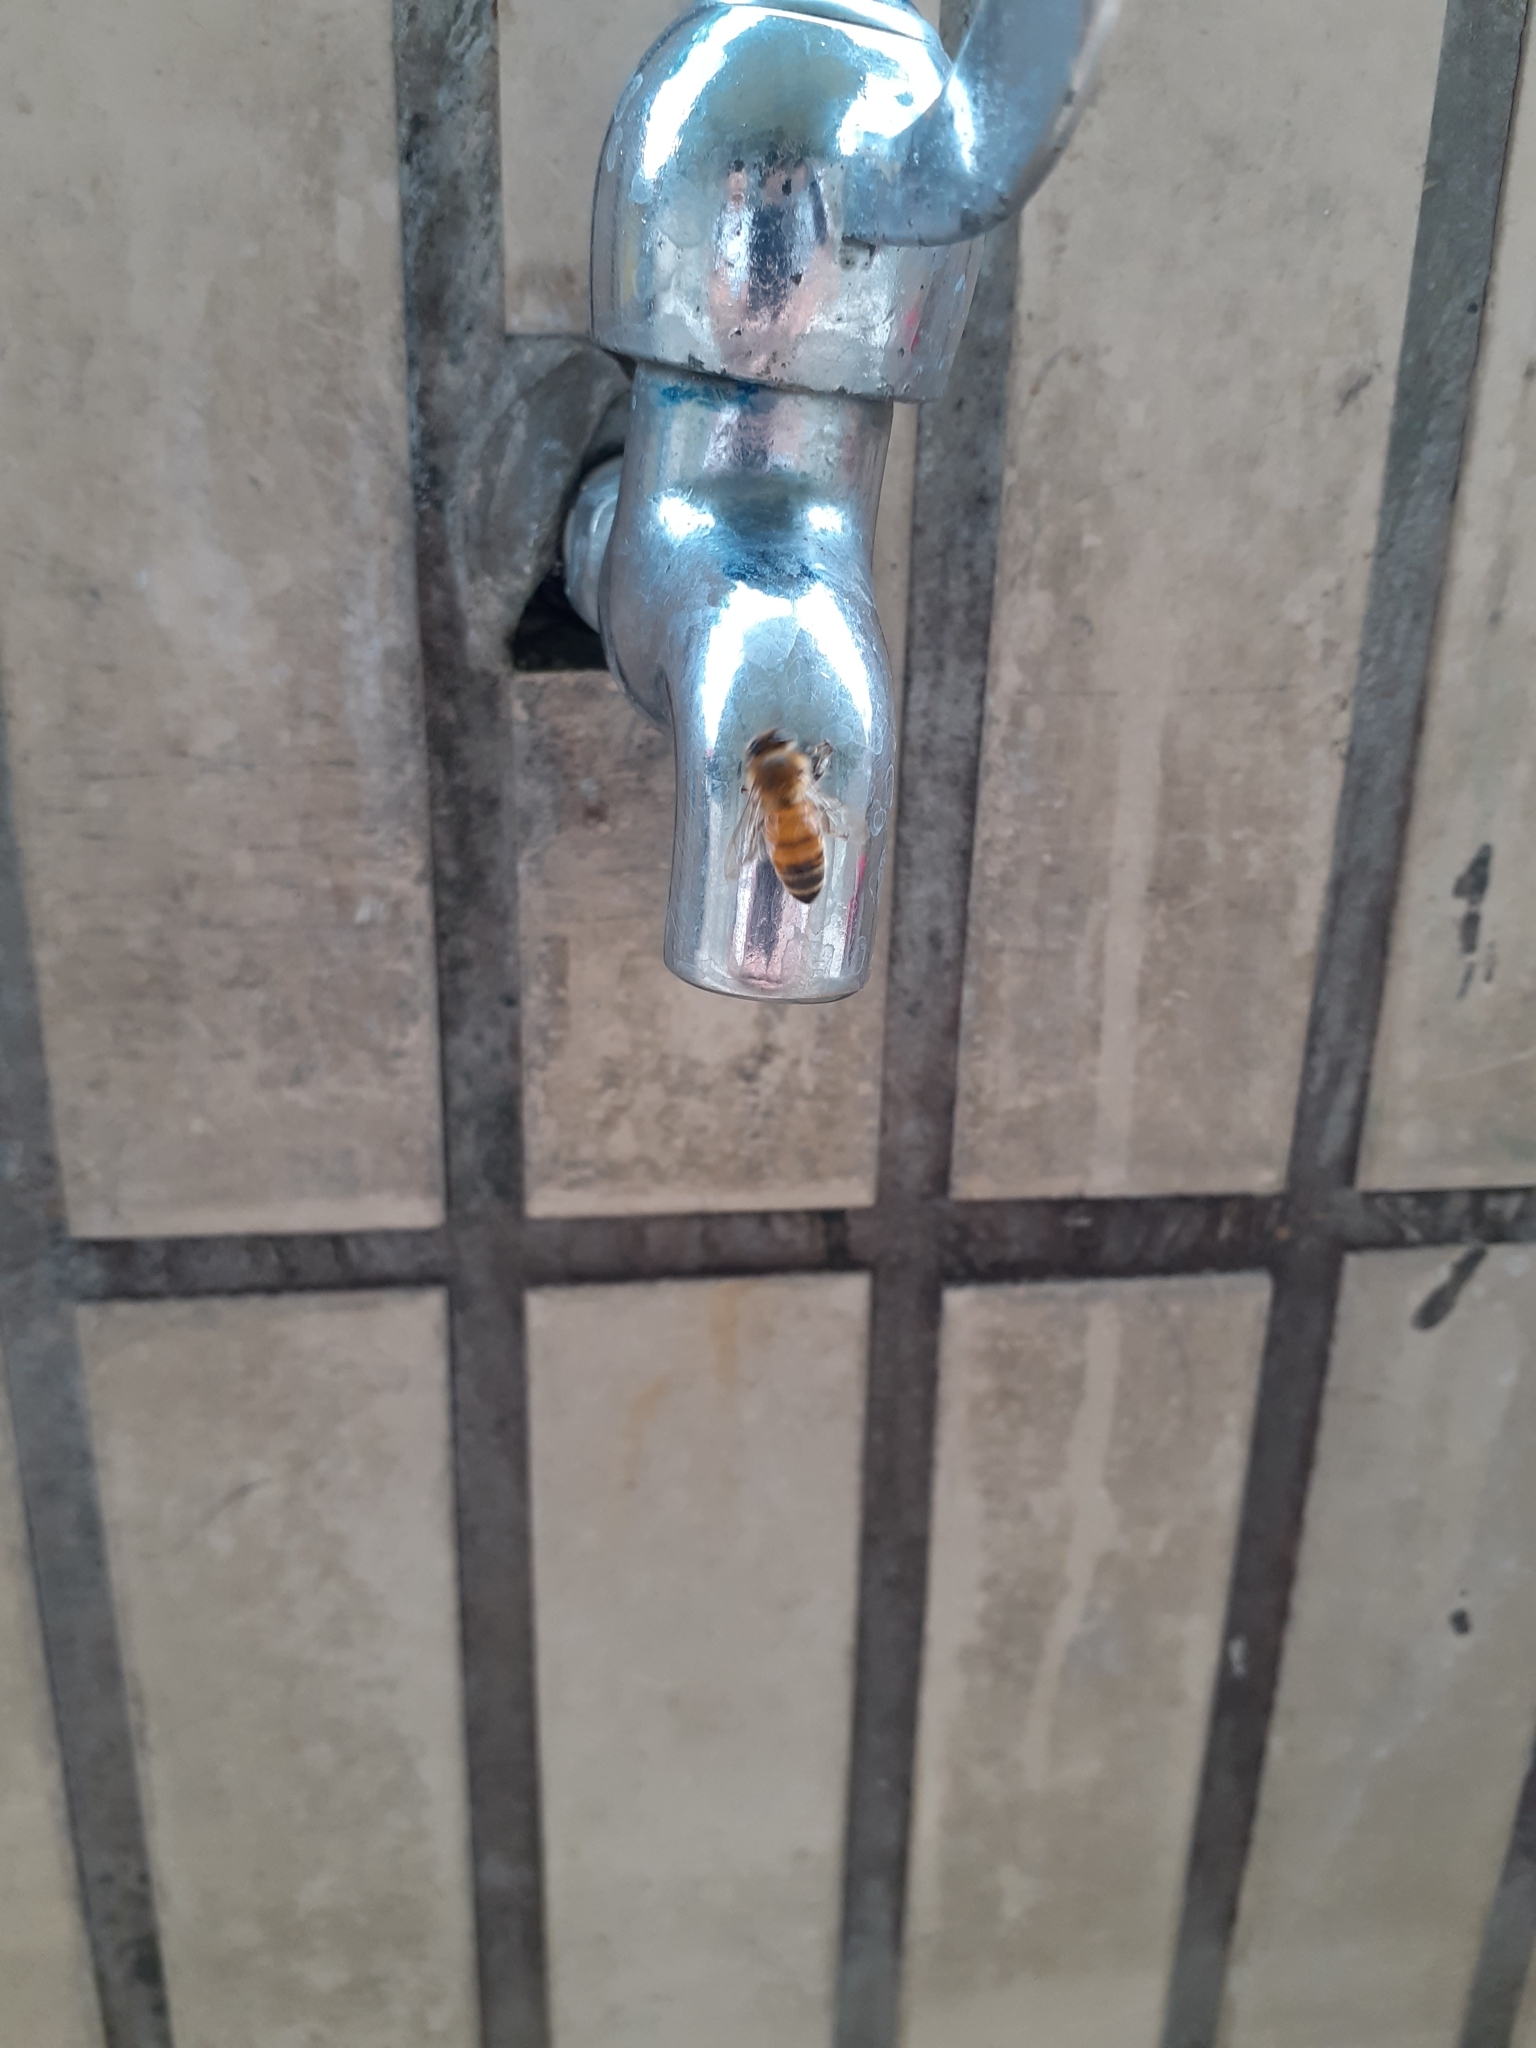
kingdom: Animalia
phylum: Arthropoda
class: Insecta
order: Hymenoptera
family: Apidae
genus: Apis
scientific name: Apis mellifera
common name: Honey bee
